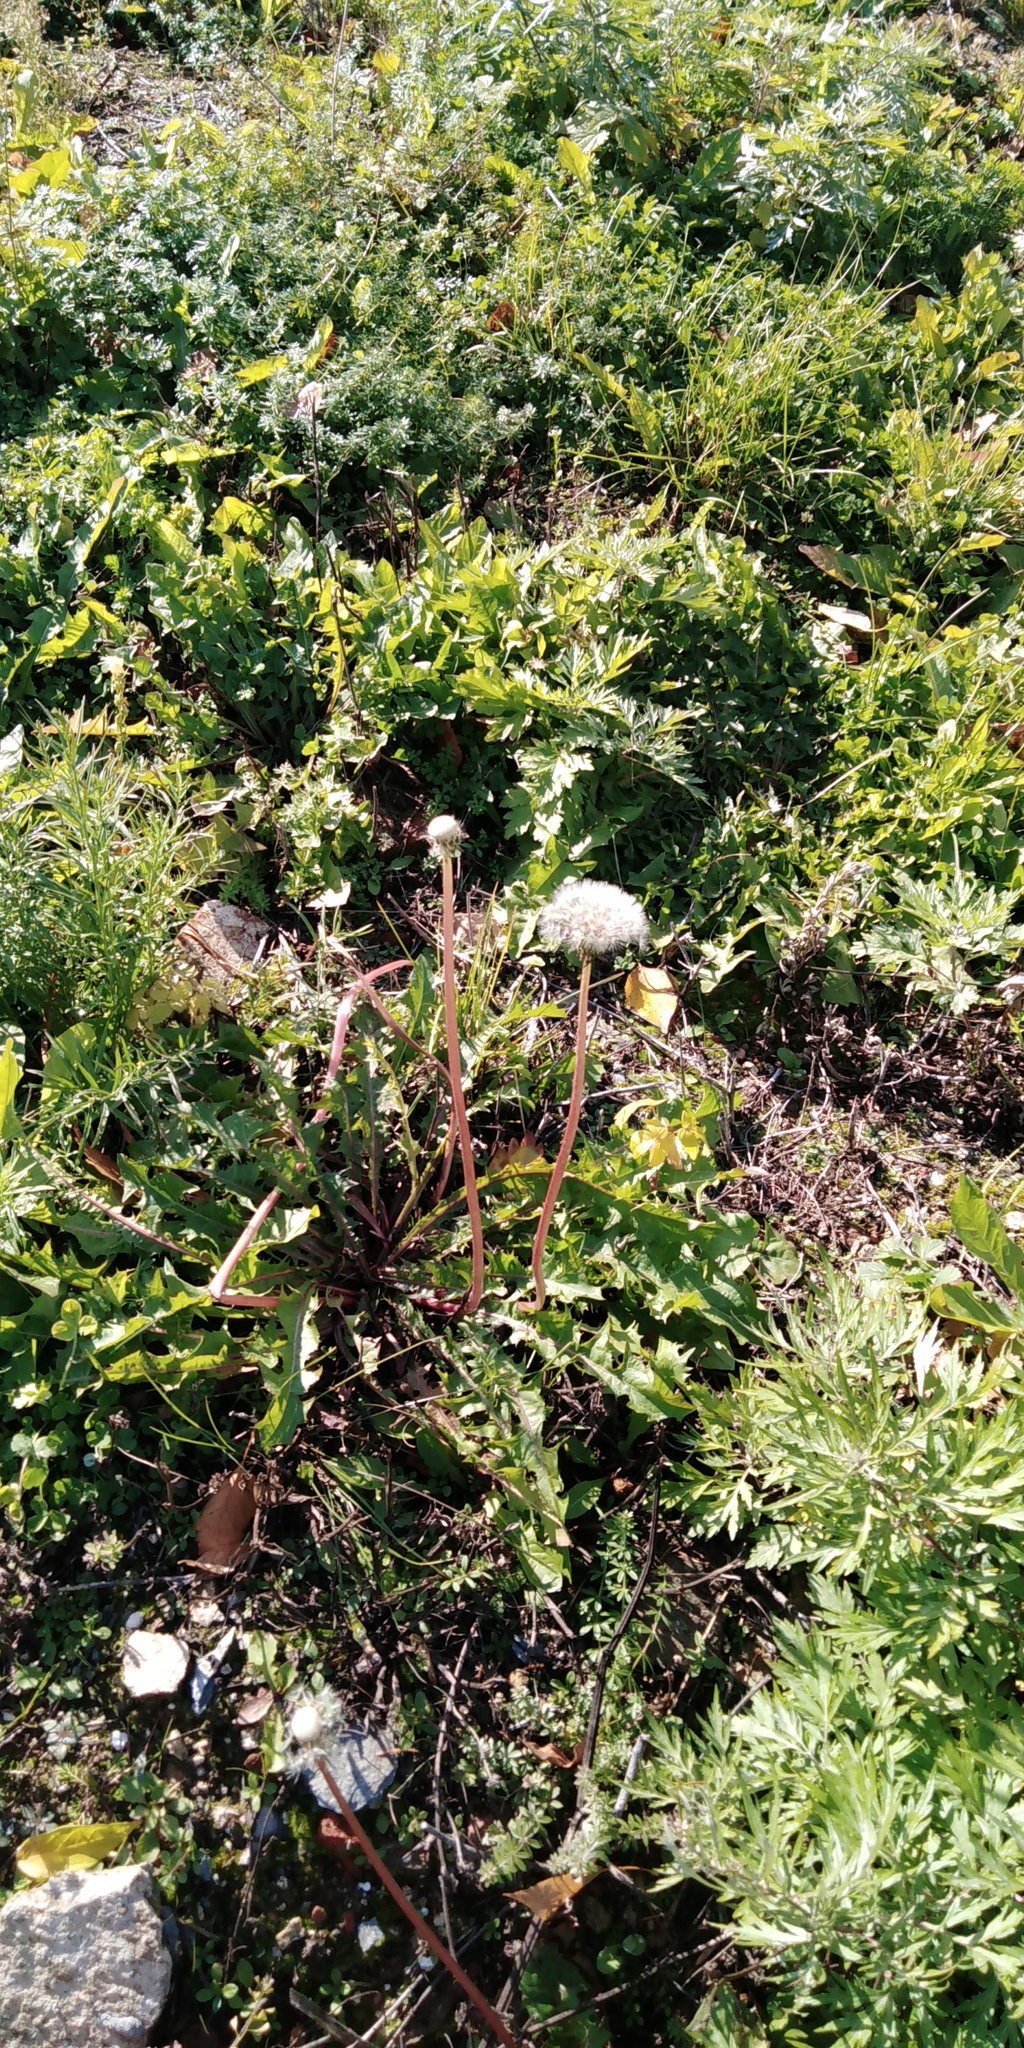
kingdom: Plantae
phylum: Tracheophyta
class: Magnoliopsida
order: Asterales
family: Asteraceae
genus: Taraxacum
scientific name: Taraxacum officinale
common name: Common dandelion
